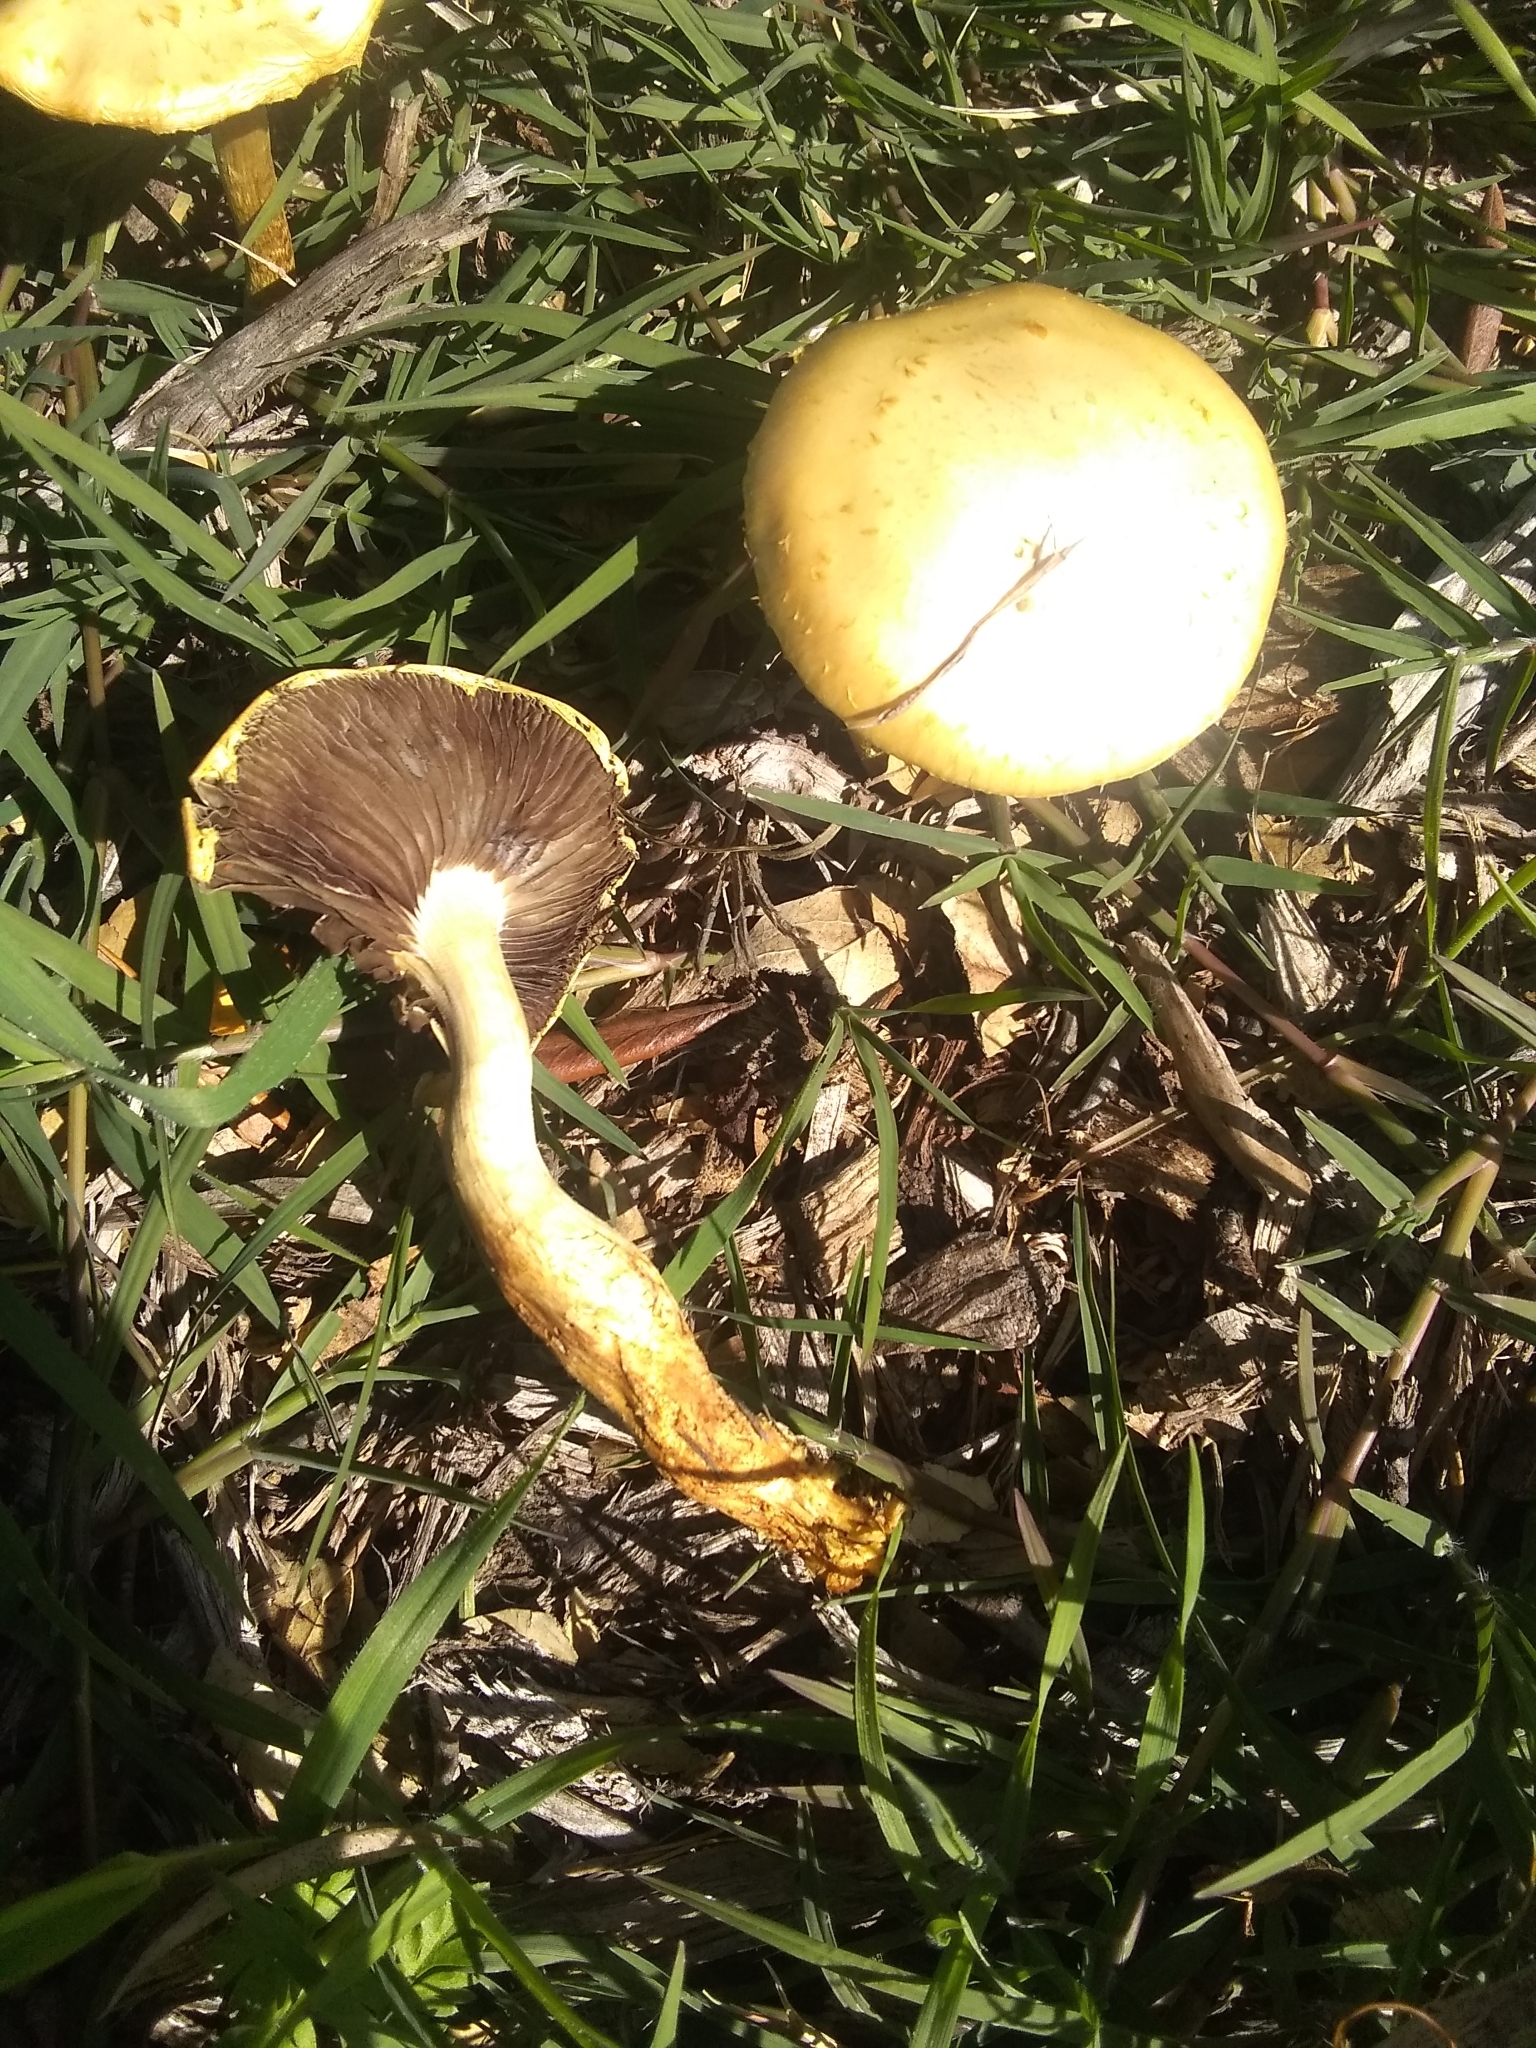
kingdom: Fungi
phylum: Basidiomycota
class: Agaricomycetes
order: Agaricales
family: Strophariaceae
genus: Leratiomyces
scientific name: Leratiomyces percevalii
